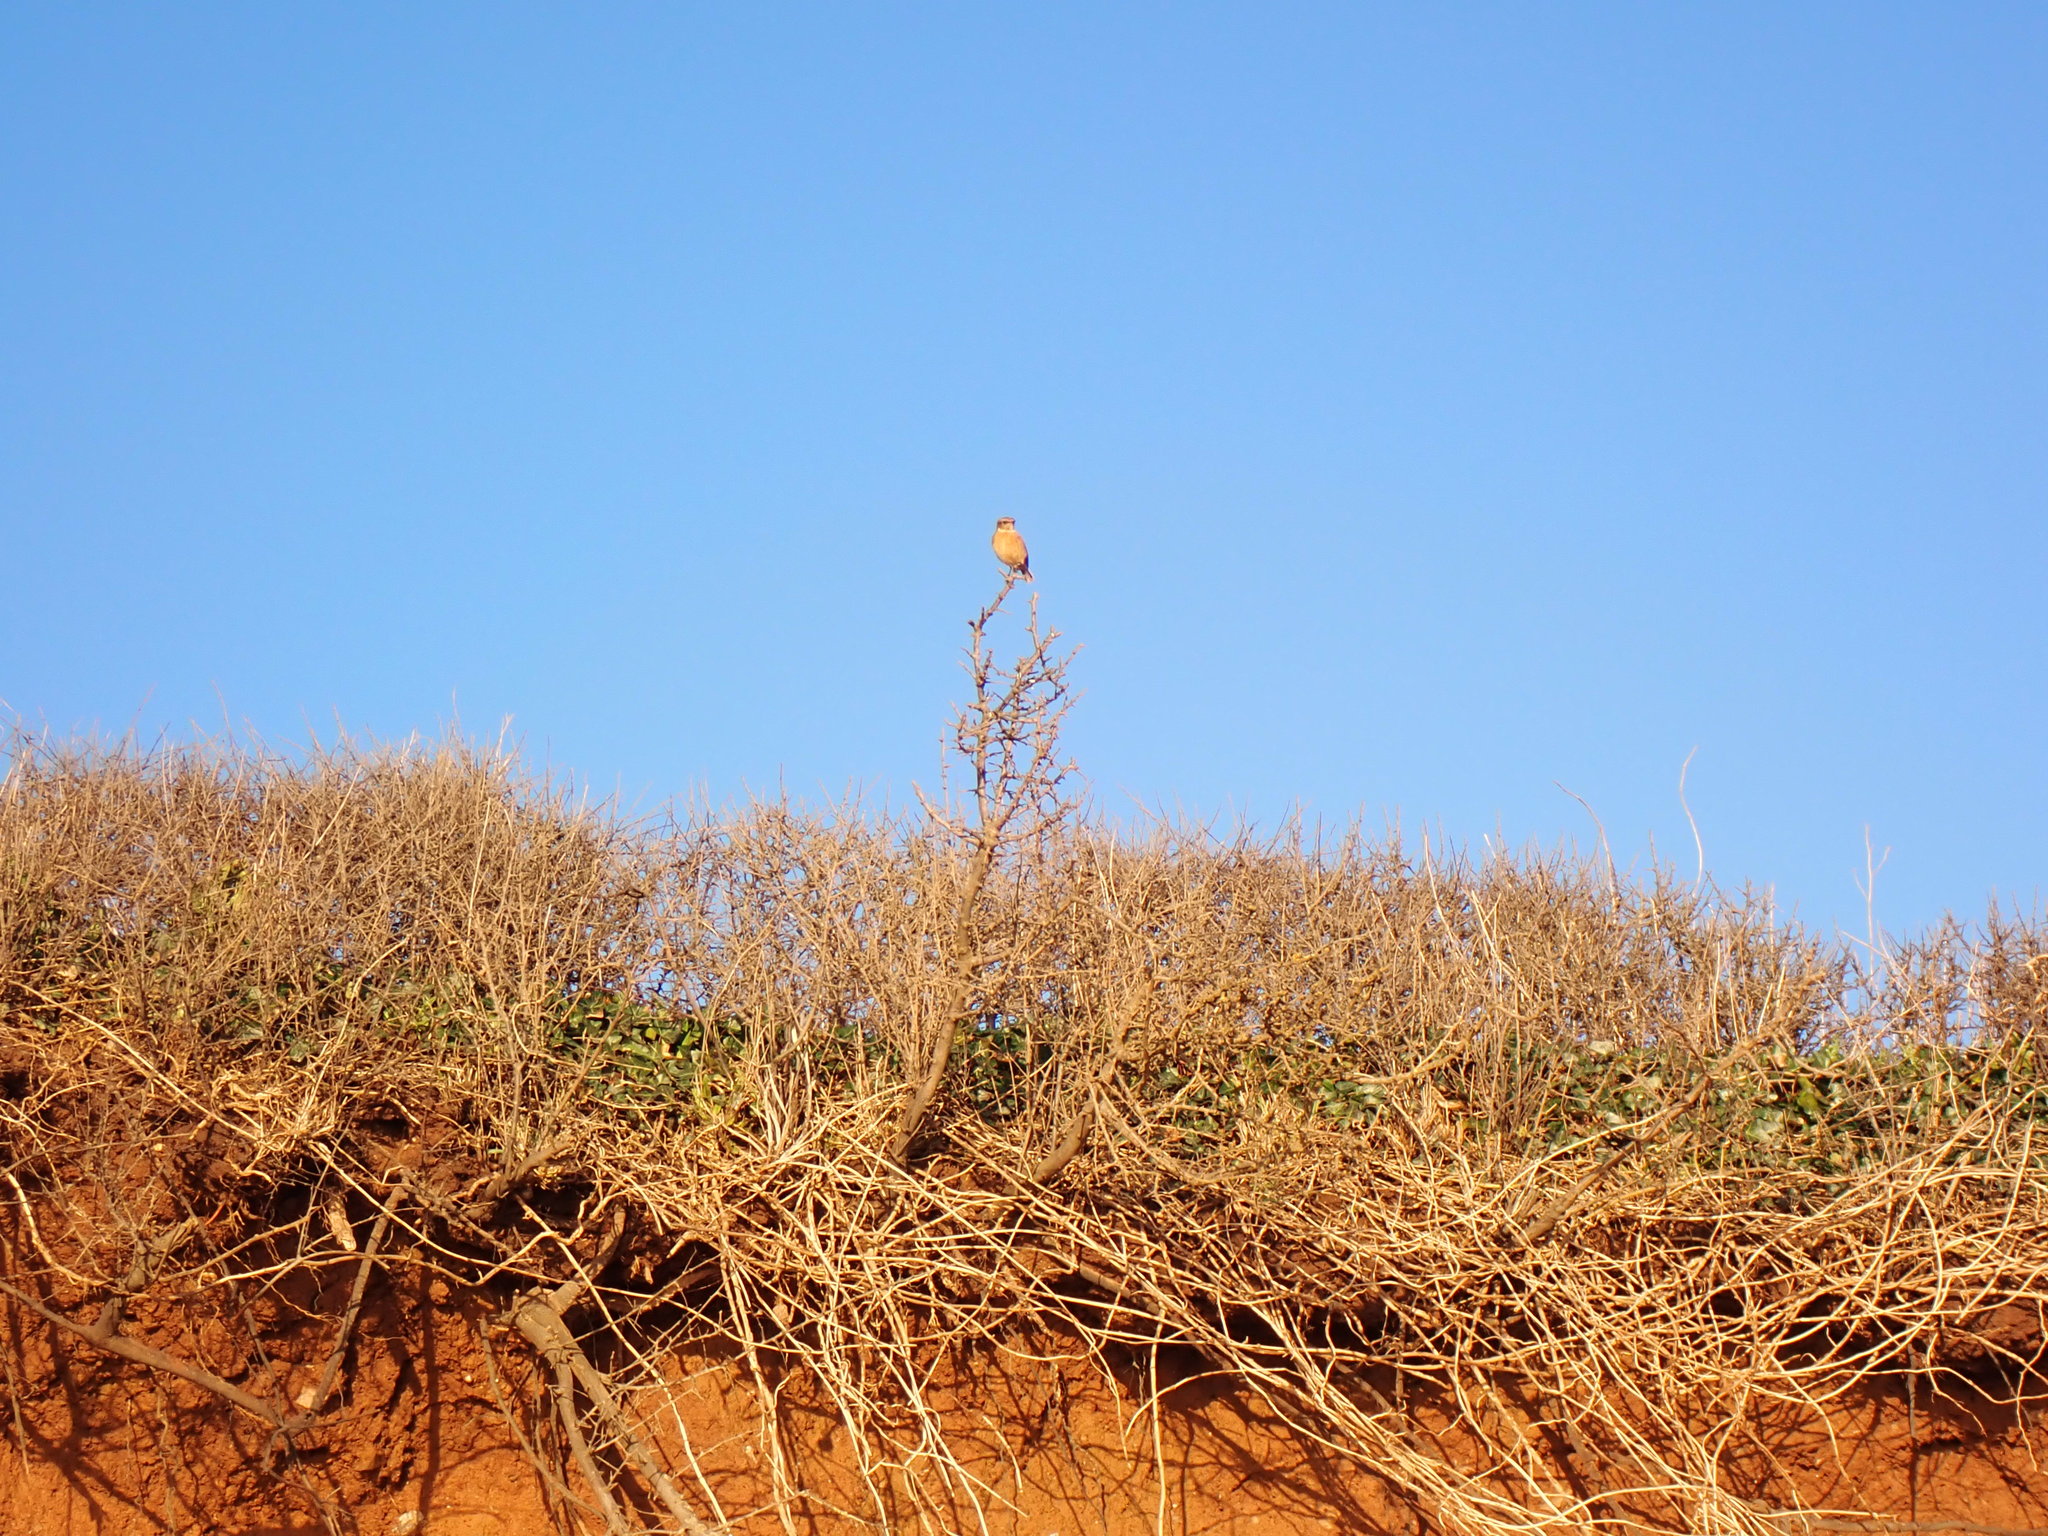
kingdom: Animalia
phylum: Chordata
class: Aves
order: Passeriformes
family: Muscicapidae
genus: Saxicola
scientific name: Saxicola rubicola
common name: European stonechat
